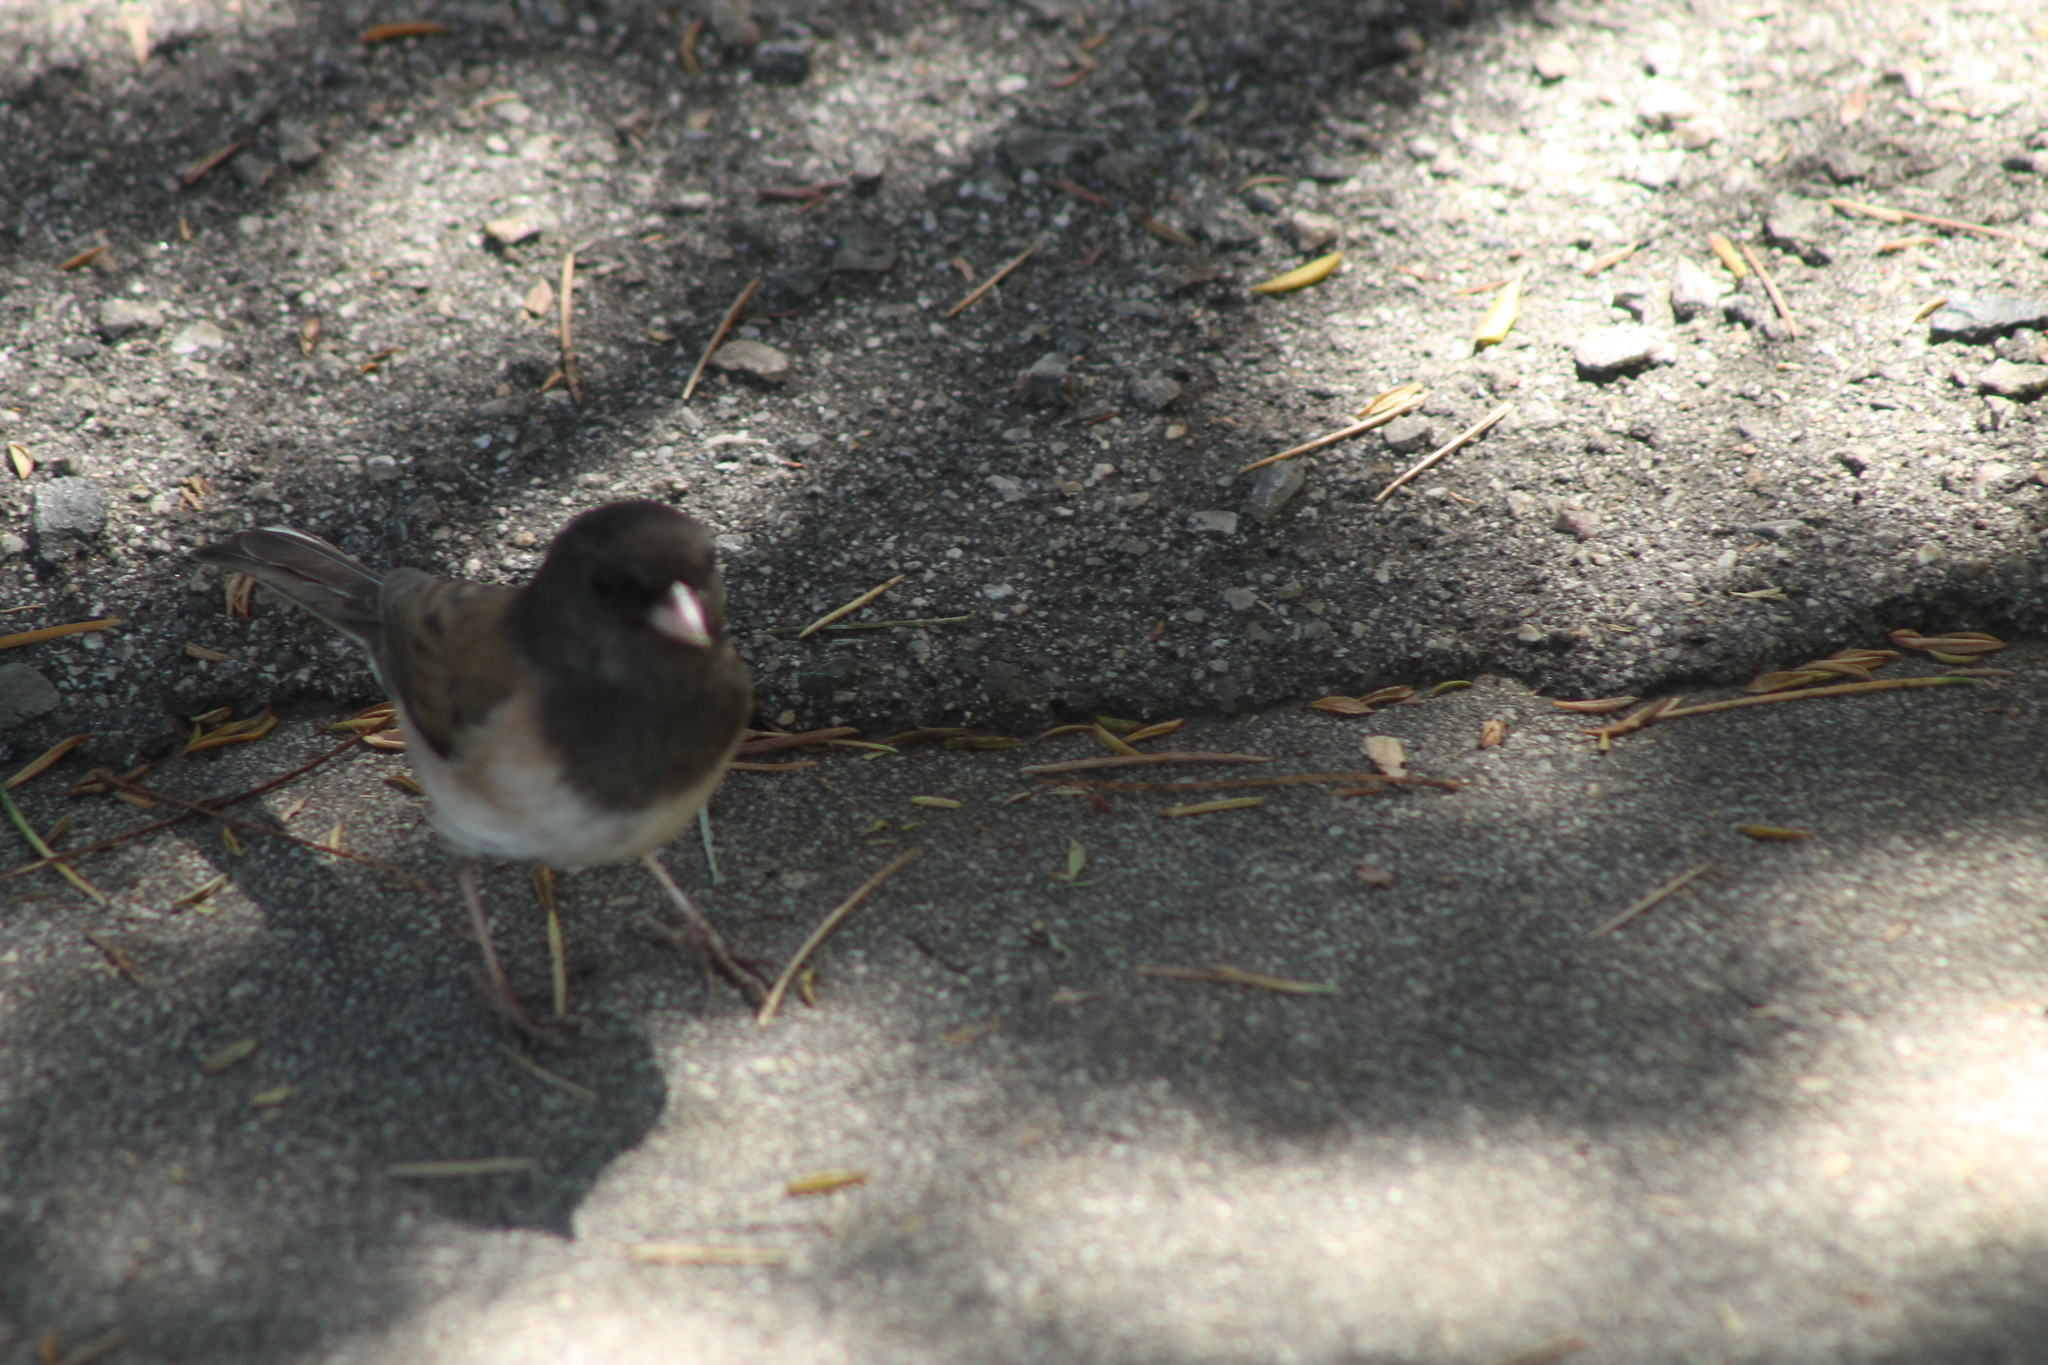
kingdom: Animalia
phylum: Chordata
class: Aves
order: Passeriformes
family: Passerellidae
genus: Junco
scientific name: Junco hyemalis
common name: Dark-eyed junco
